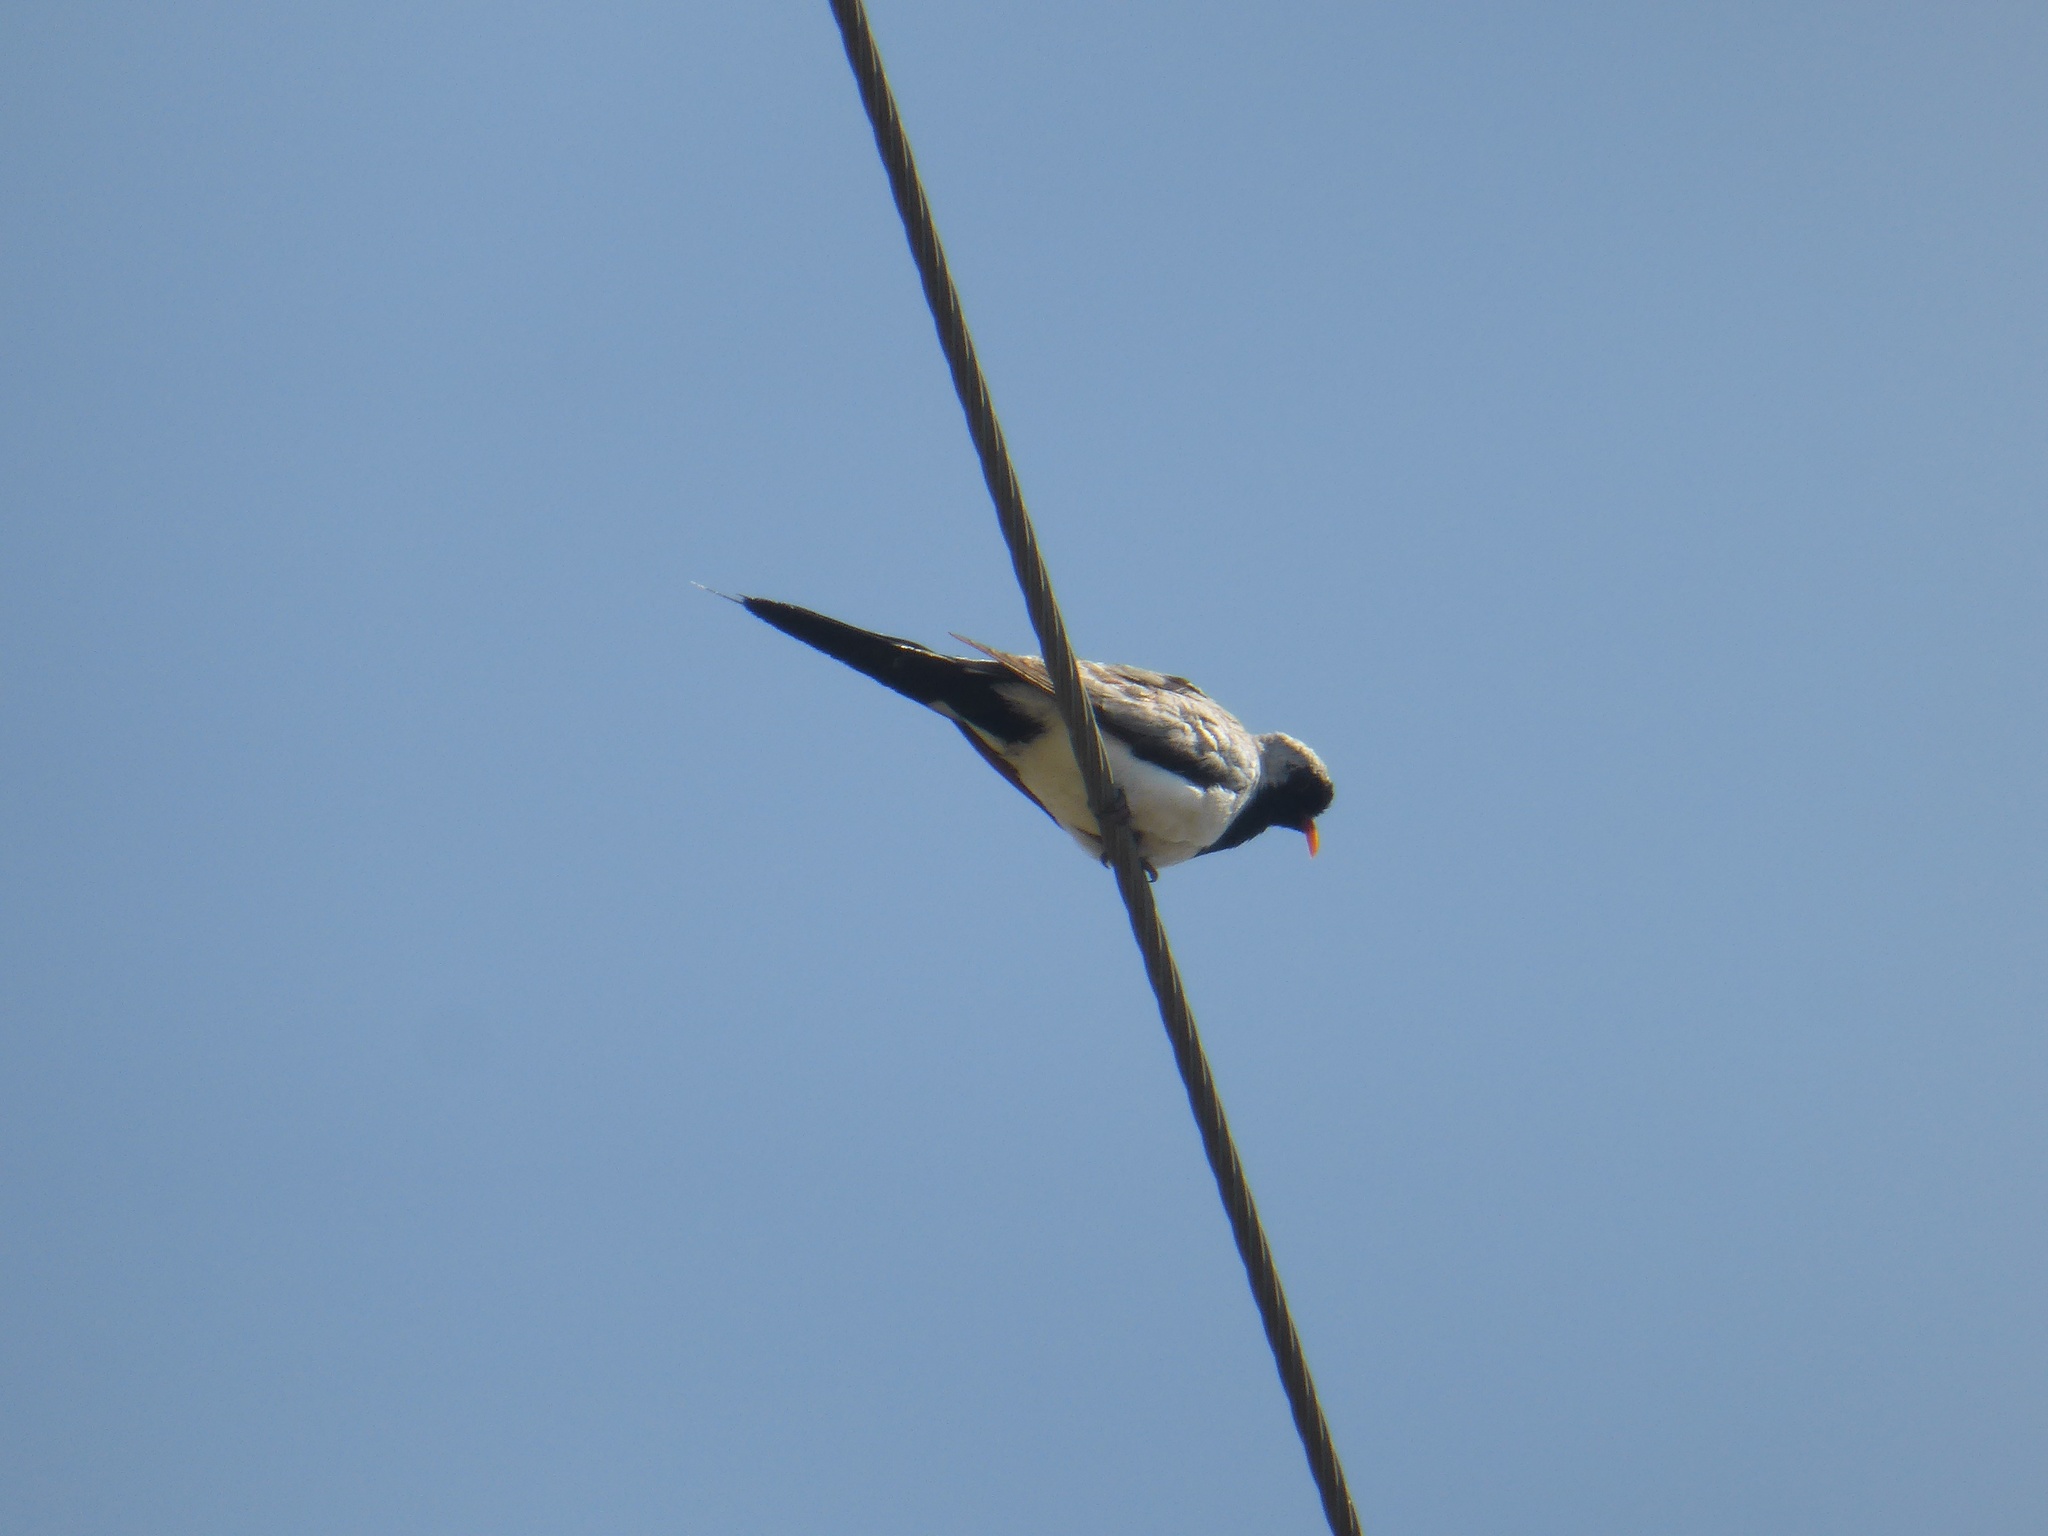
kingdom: Animalia
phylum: Chordata
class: Aves
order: Columbiformes
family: Columbidae
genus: Oena
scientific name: Oena capensis
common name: Namaqua dove
